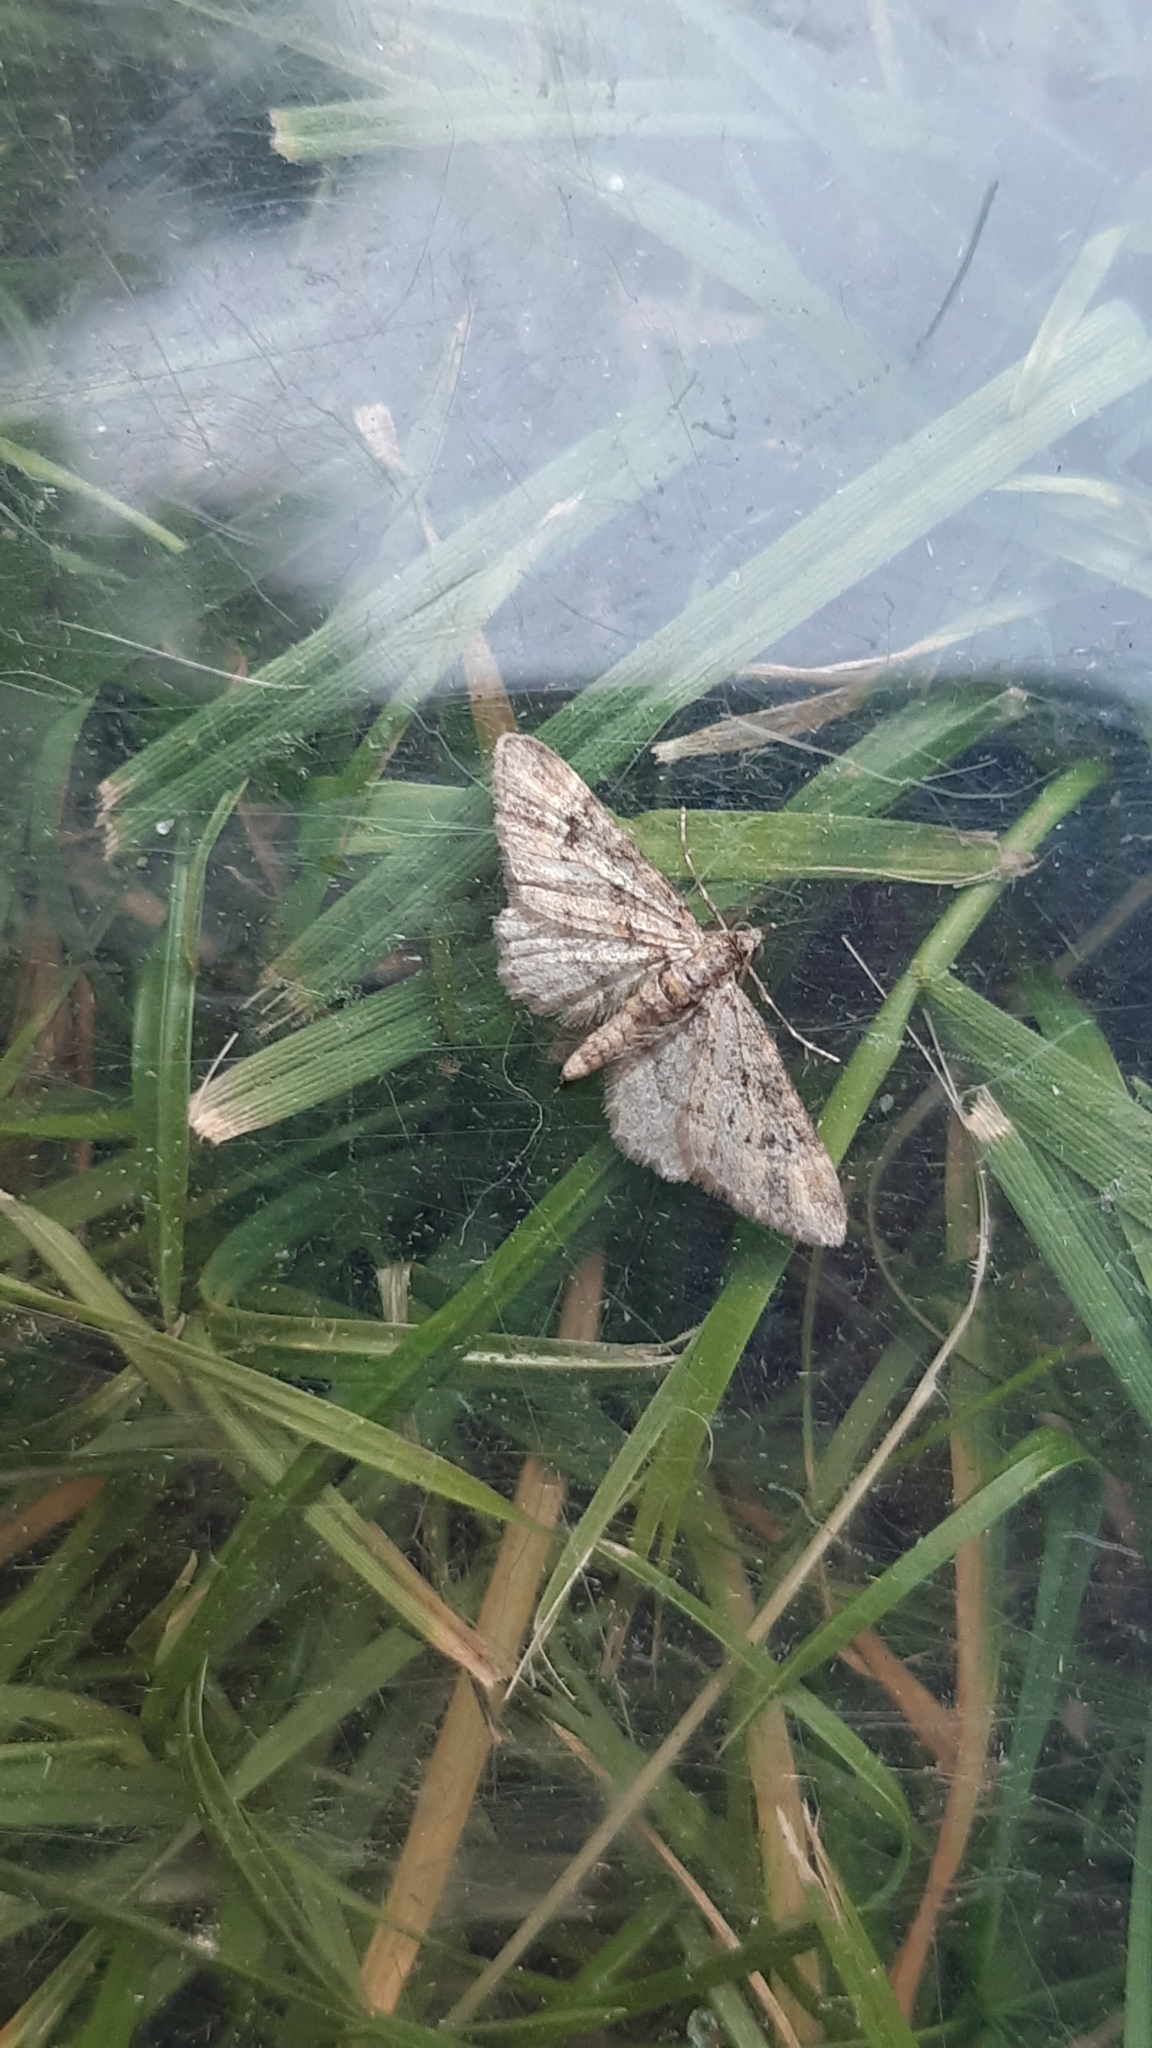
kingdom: Animalia
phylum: Arthropoda
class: Insecta
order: Lepidoptera
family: Geometridae
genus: Gymnoscelis
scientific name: Gymnoscelis rufifasciata
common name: Double-striped pug
